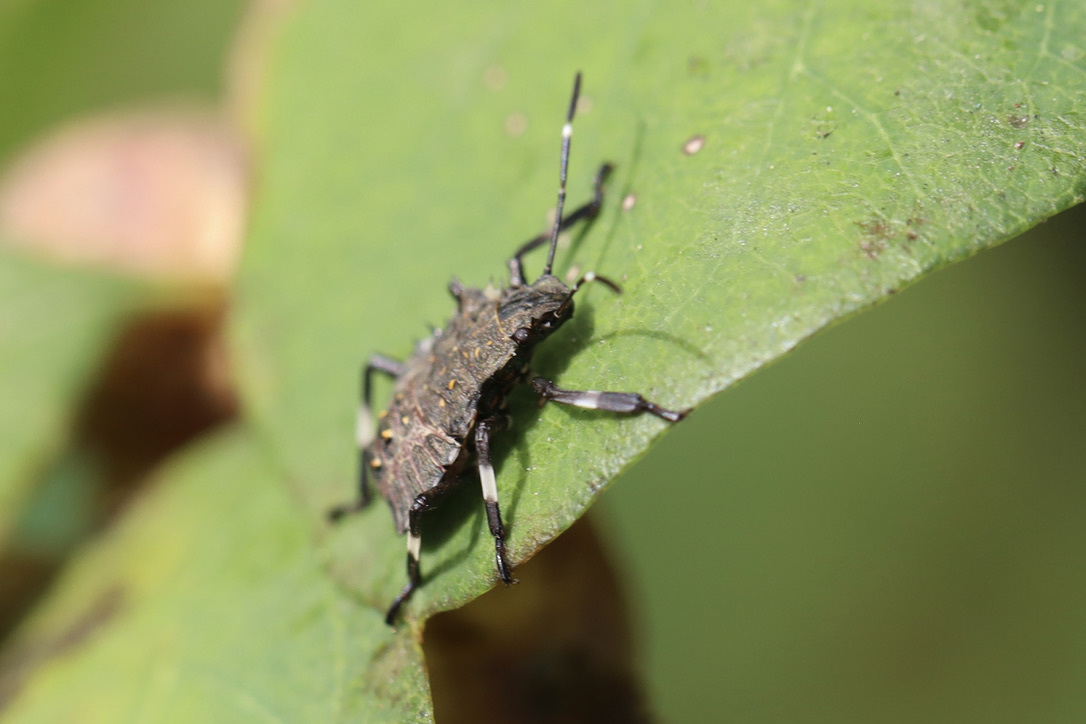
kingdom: Animalia
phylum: Arthropoda
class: Insecta
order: Hemiptera
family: Pentatomidae
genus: Halyomorpha
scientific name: Halyomorpha halys
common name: Brown marmorated stink bug
